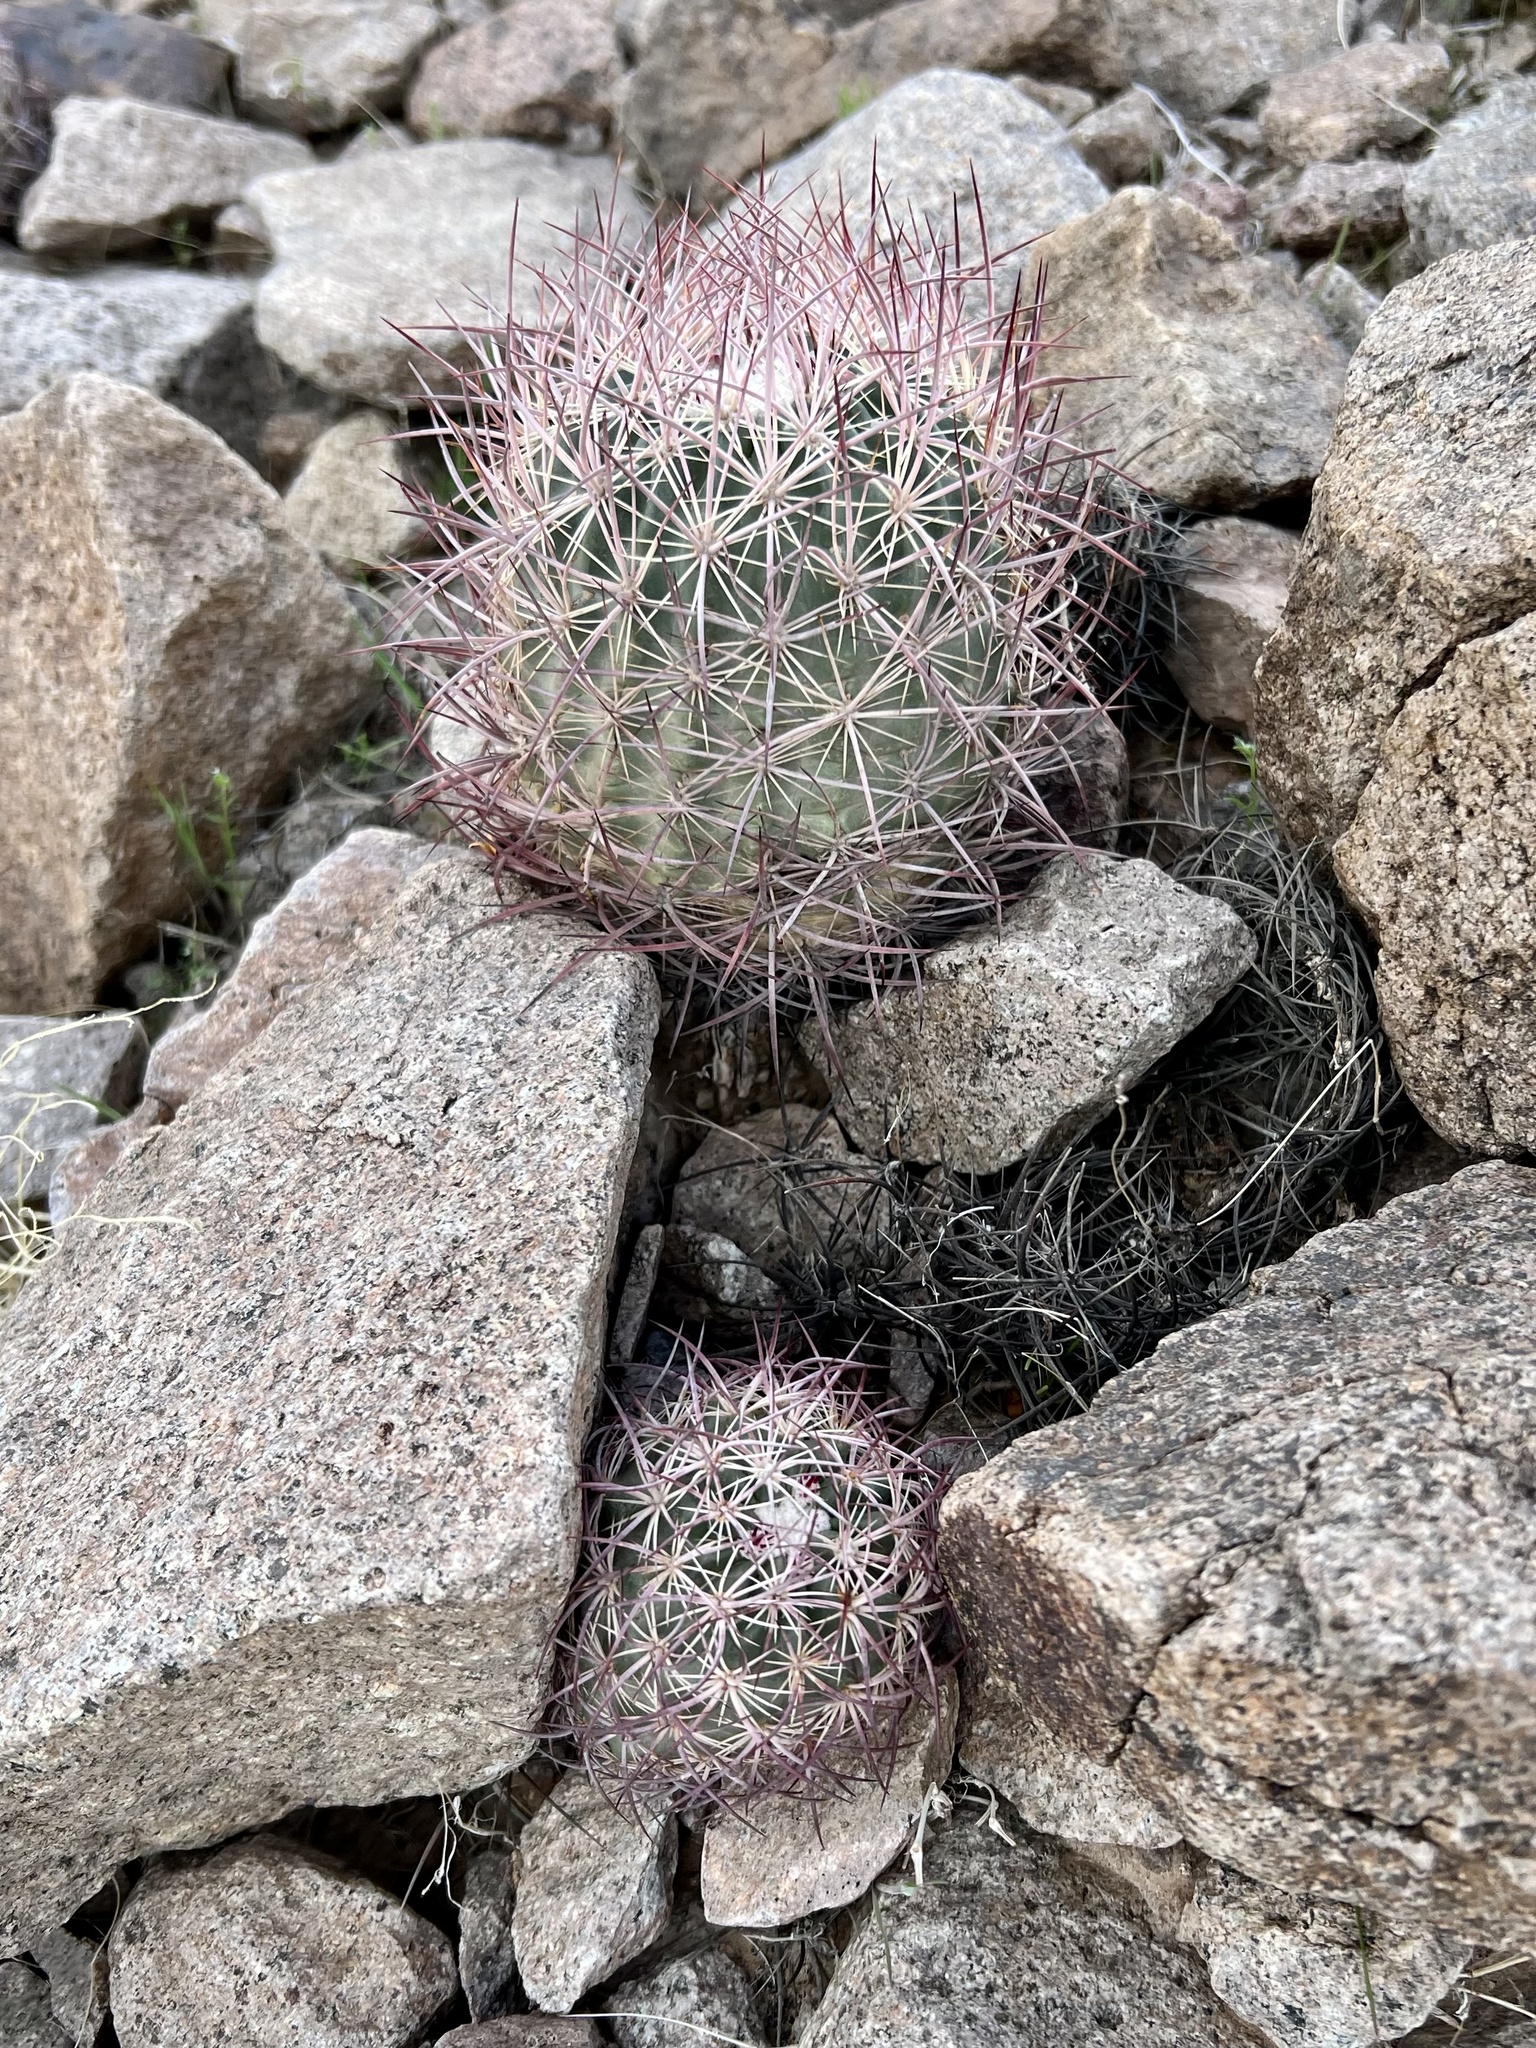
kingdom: Plantae
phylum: Tracheophyta
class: Magnoliopsida
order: Caryophyllales
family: Cactaceae
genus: Sclerocactus
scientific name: Sclerocactus johnsonii
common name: Eight-spine fishhook cactus
